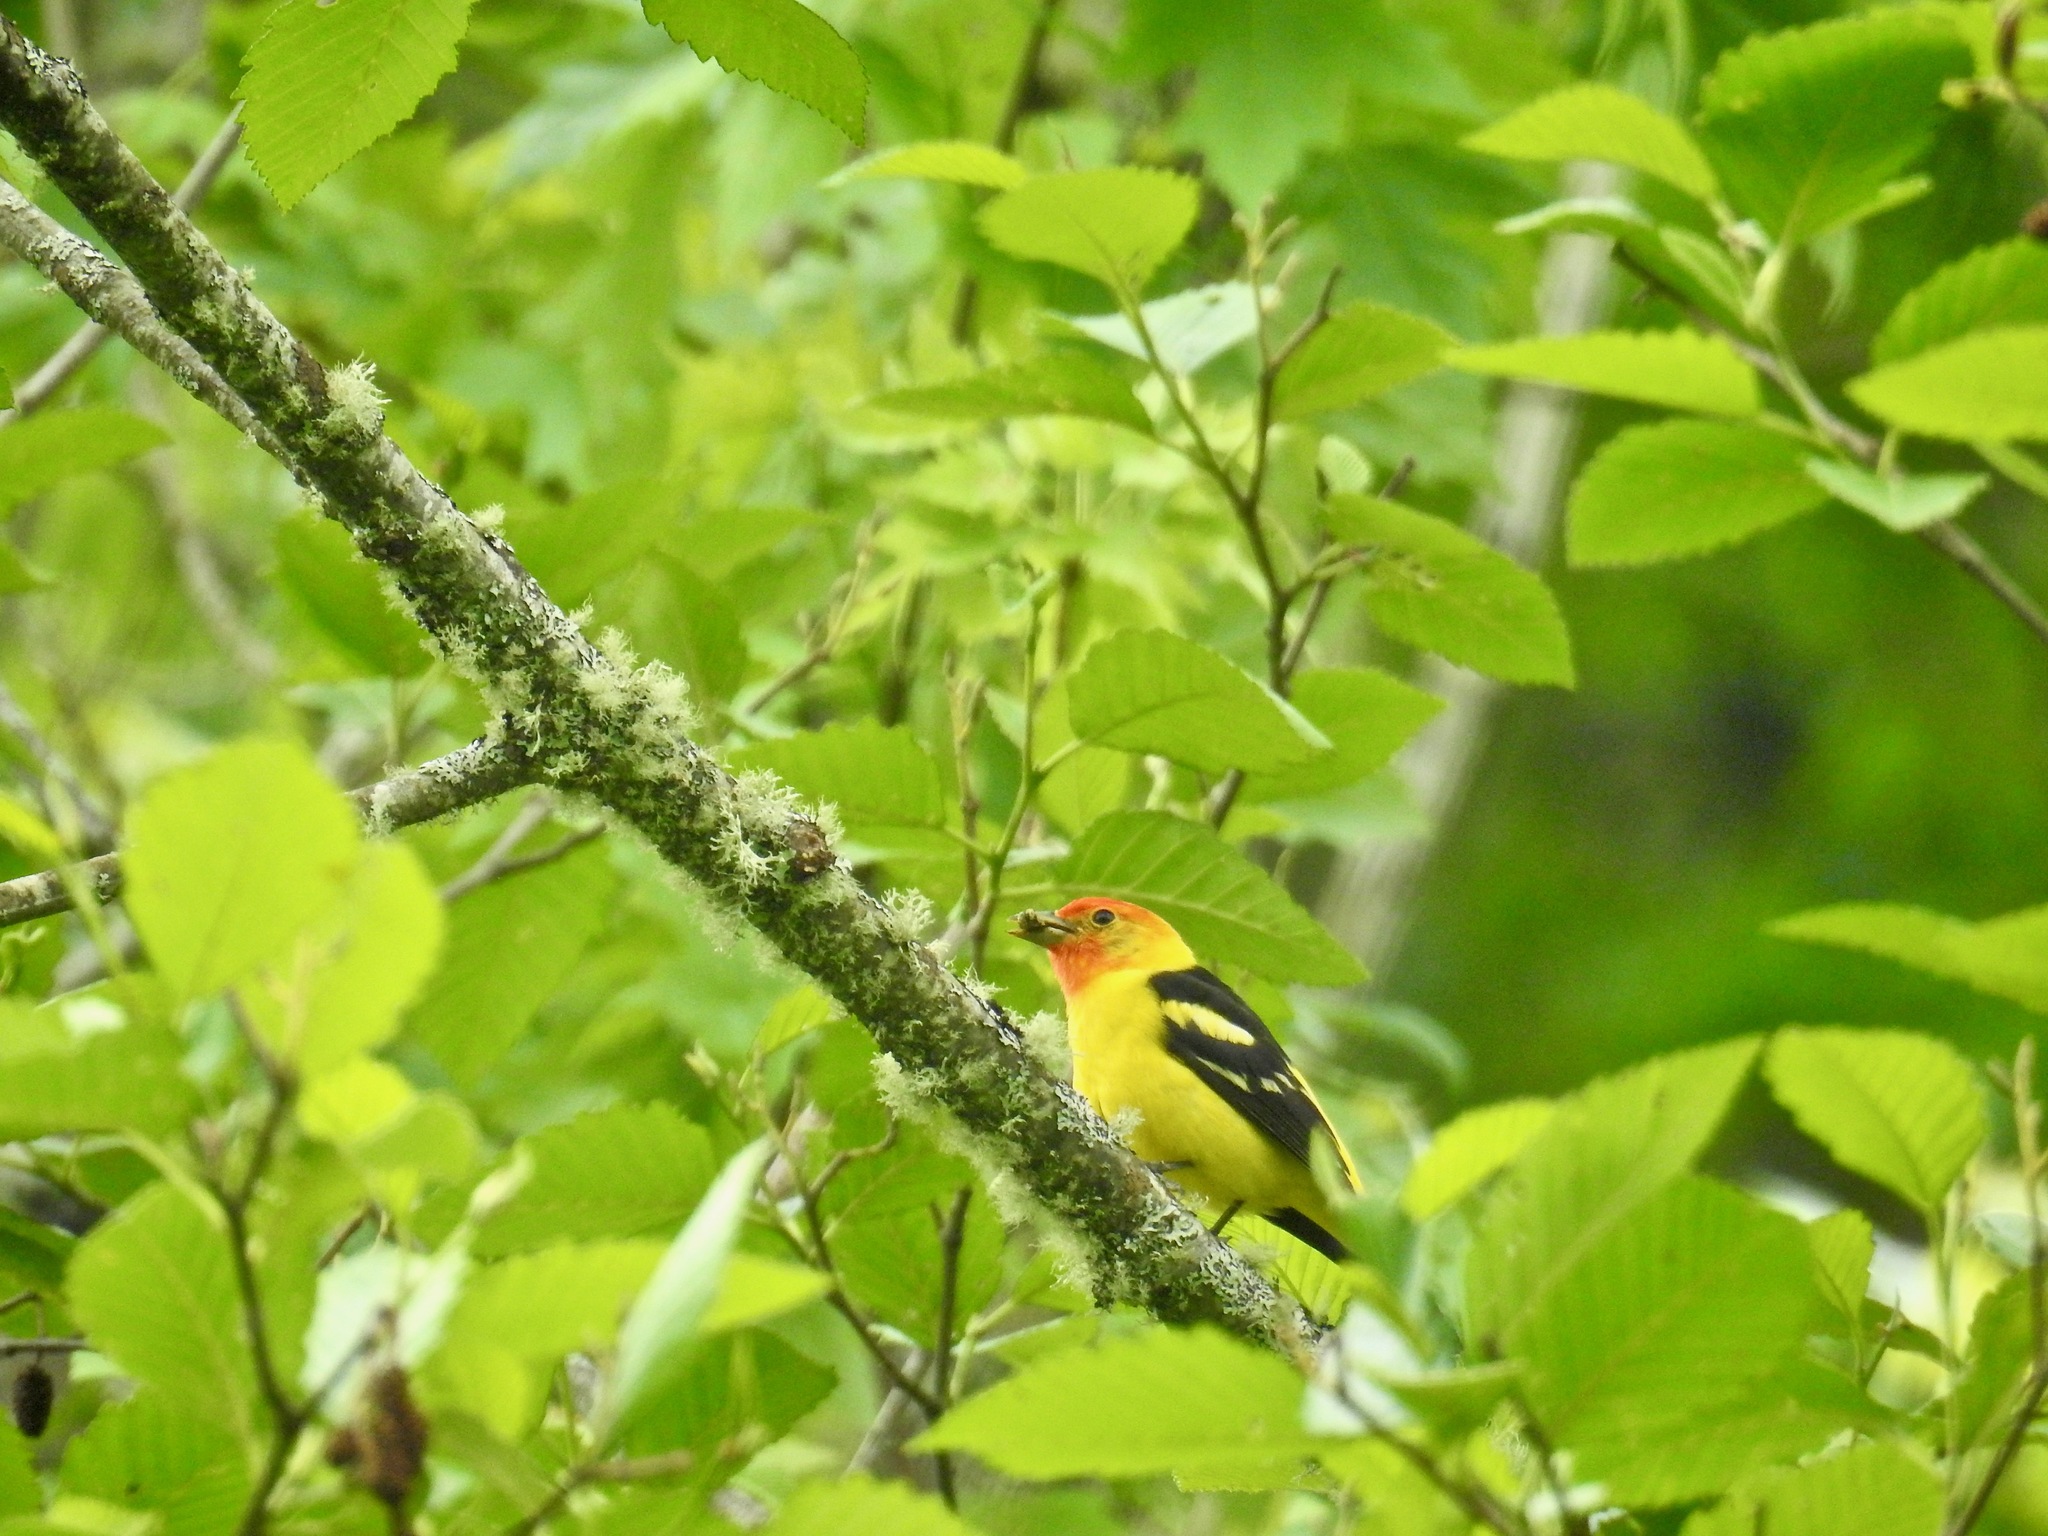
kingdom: Animalia
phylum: Chordata
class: Aves
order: Passeriformes
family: Cardinalidae
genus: Piranga
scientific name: Piranga ludoviciana
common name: Western tanager
